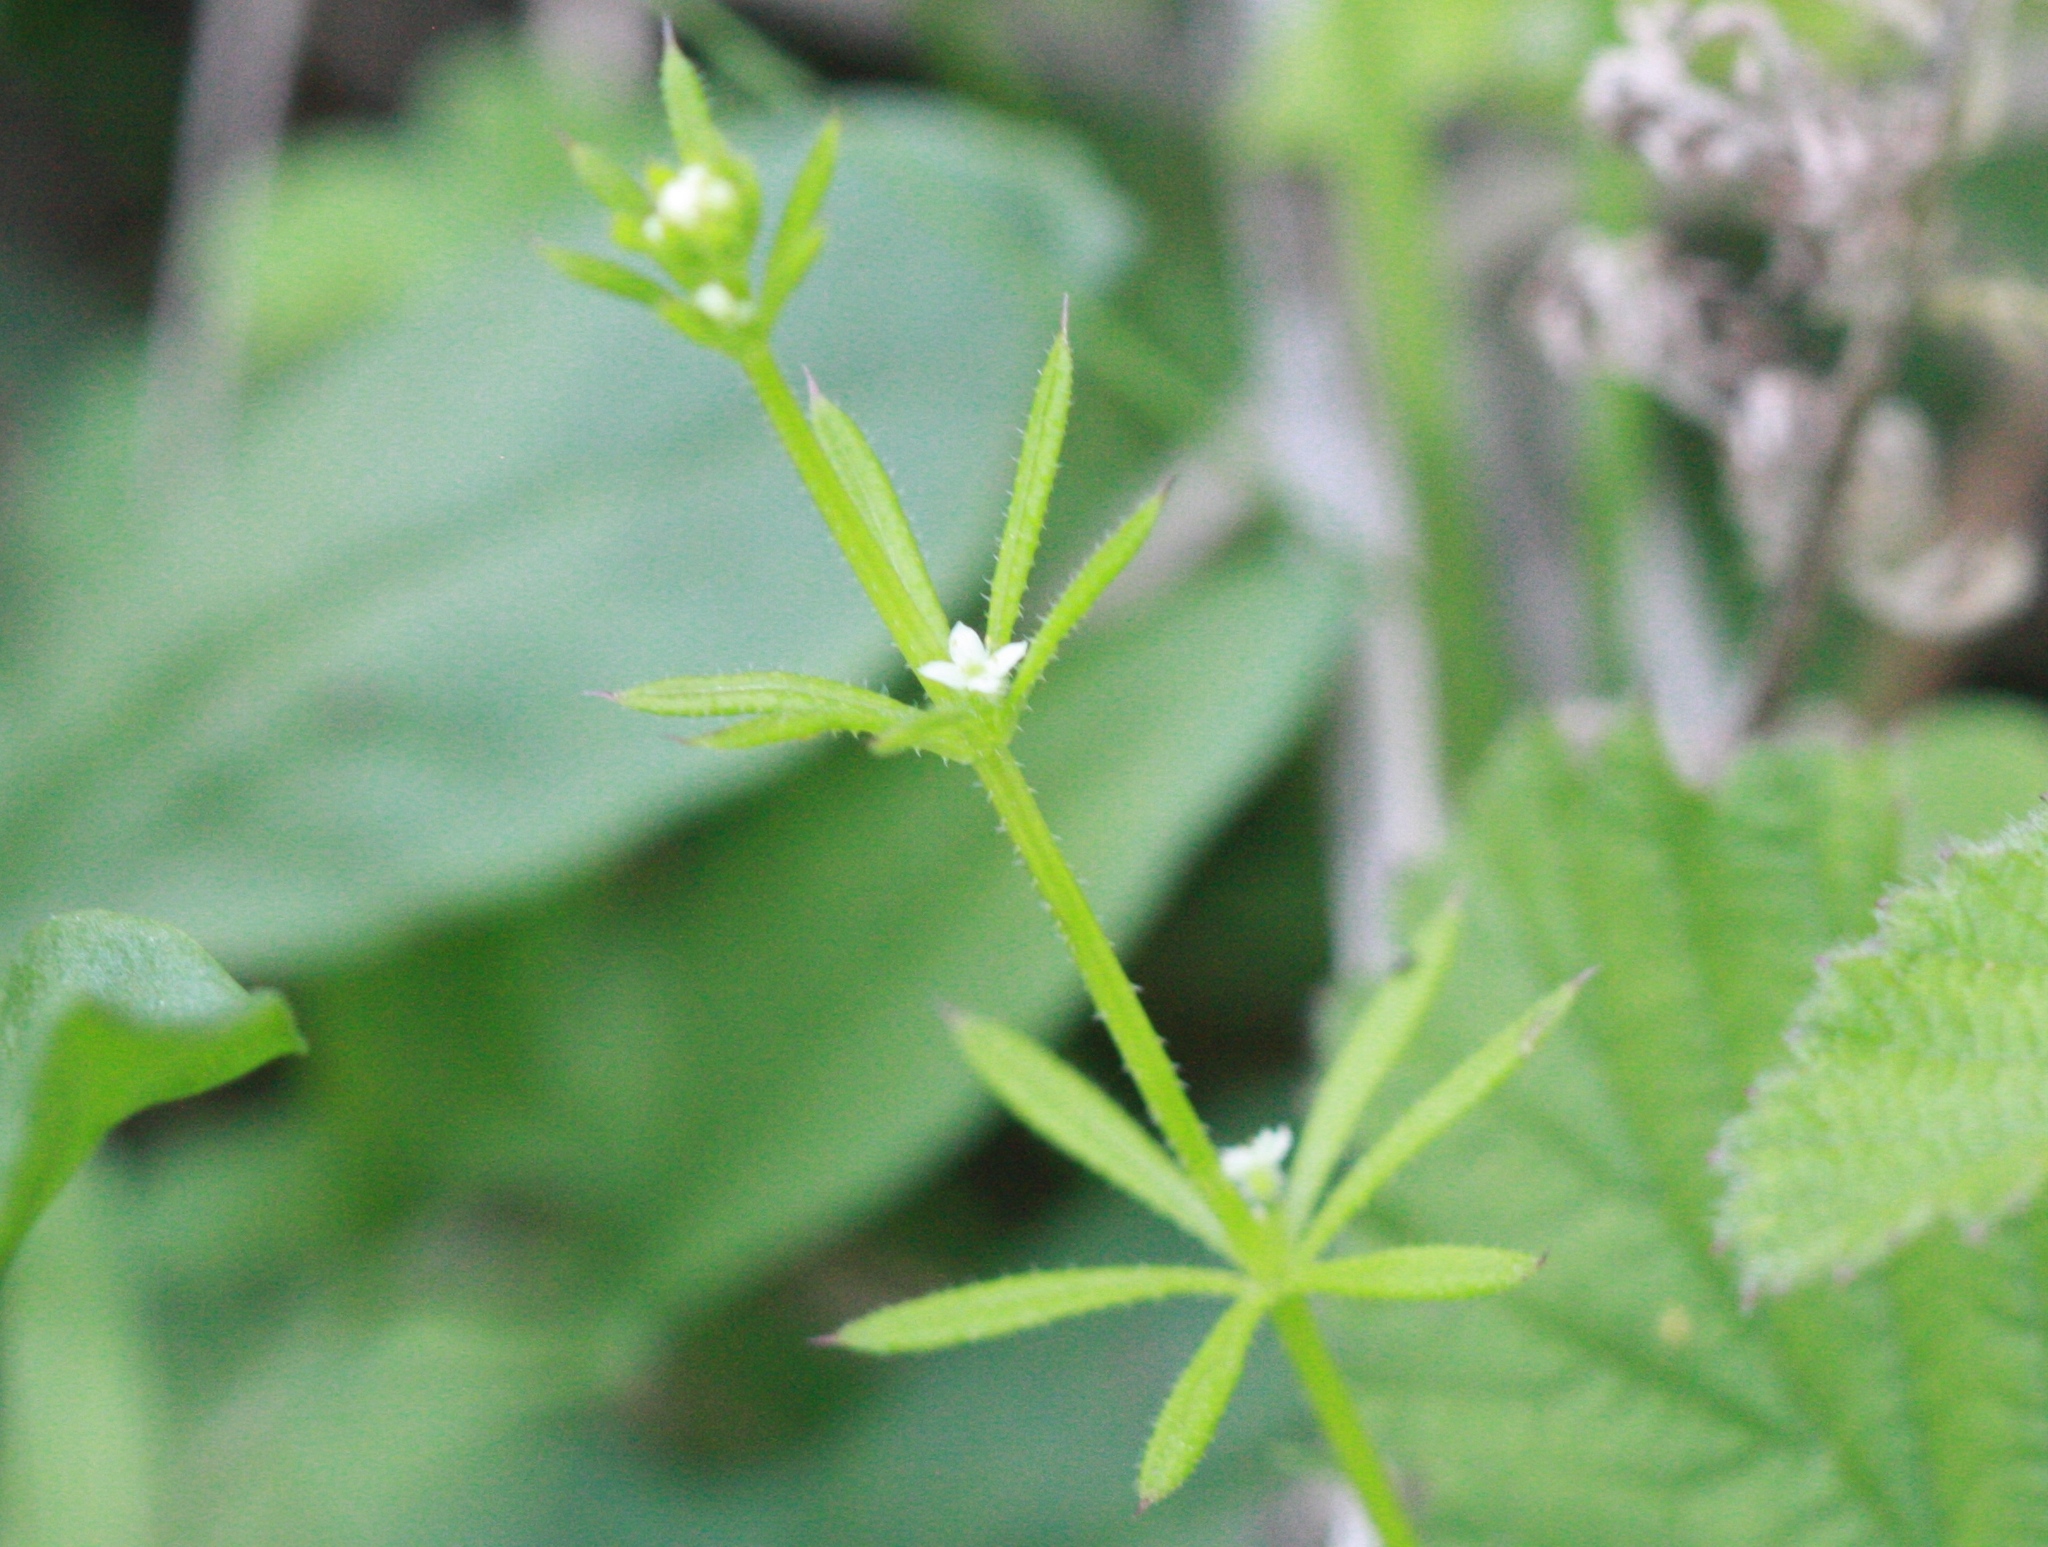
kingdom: Plantae
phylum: Tracheophyta
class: Magnoliopsida
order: Gentianales
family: Rubiaceae
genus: Galium
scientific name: Galium aparine
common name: Cleavers
